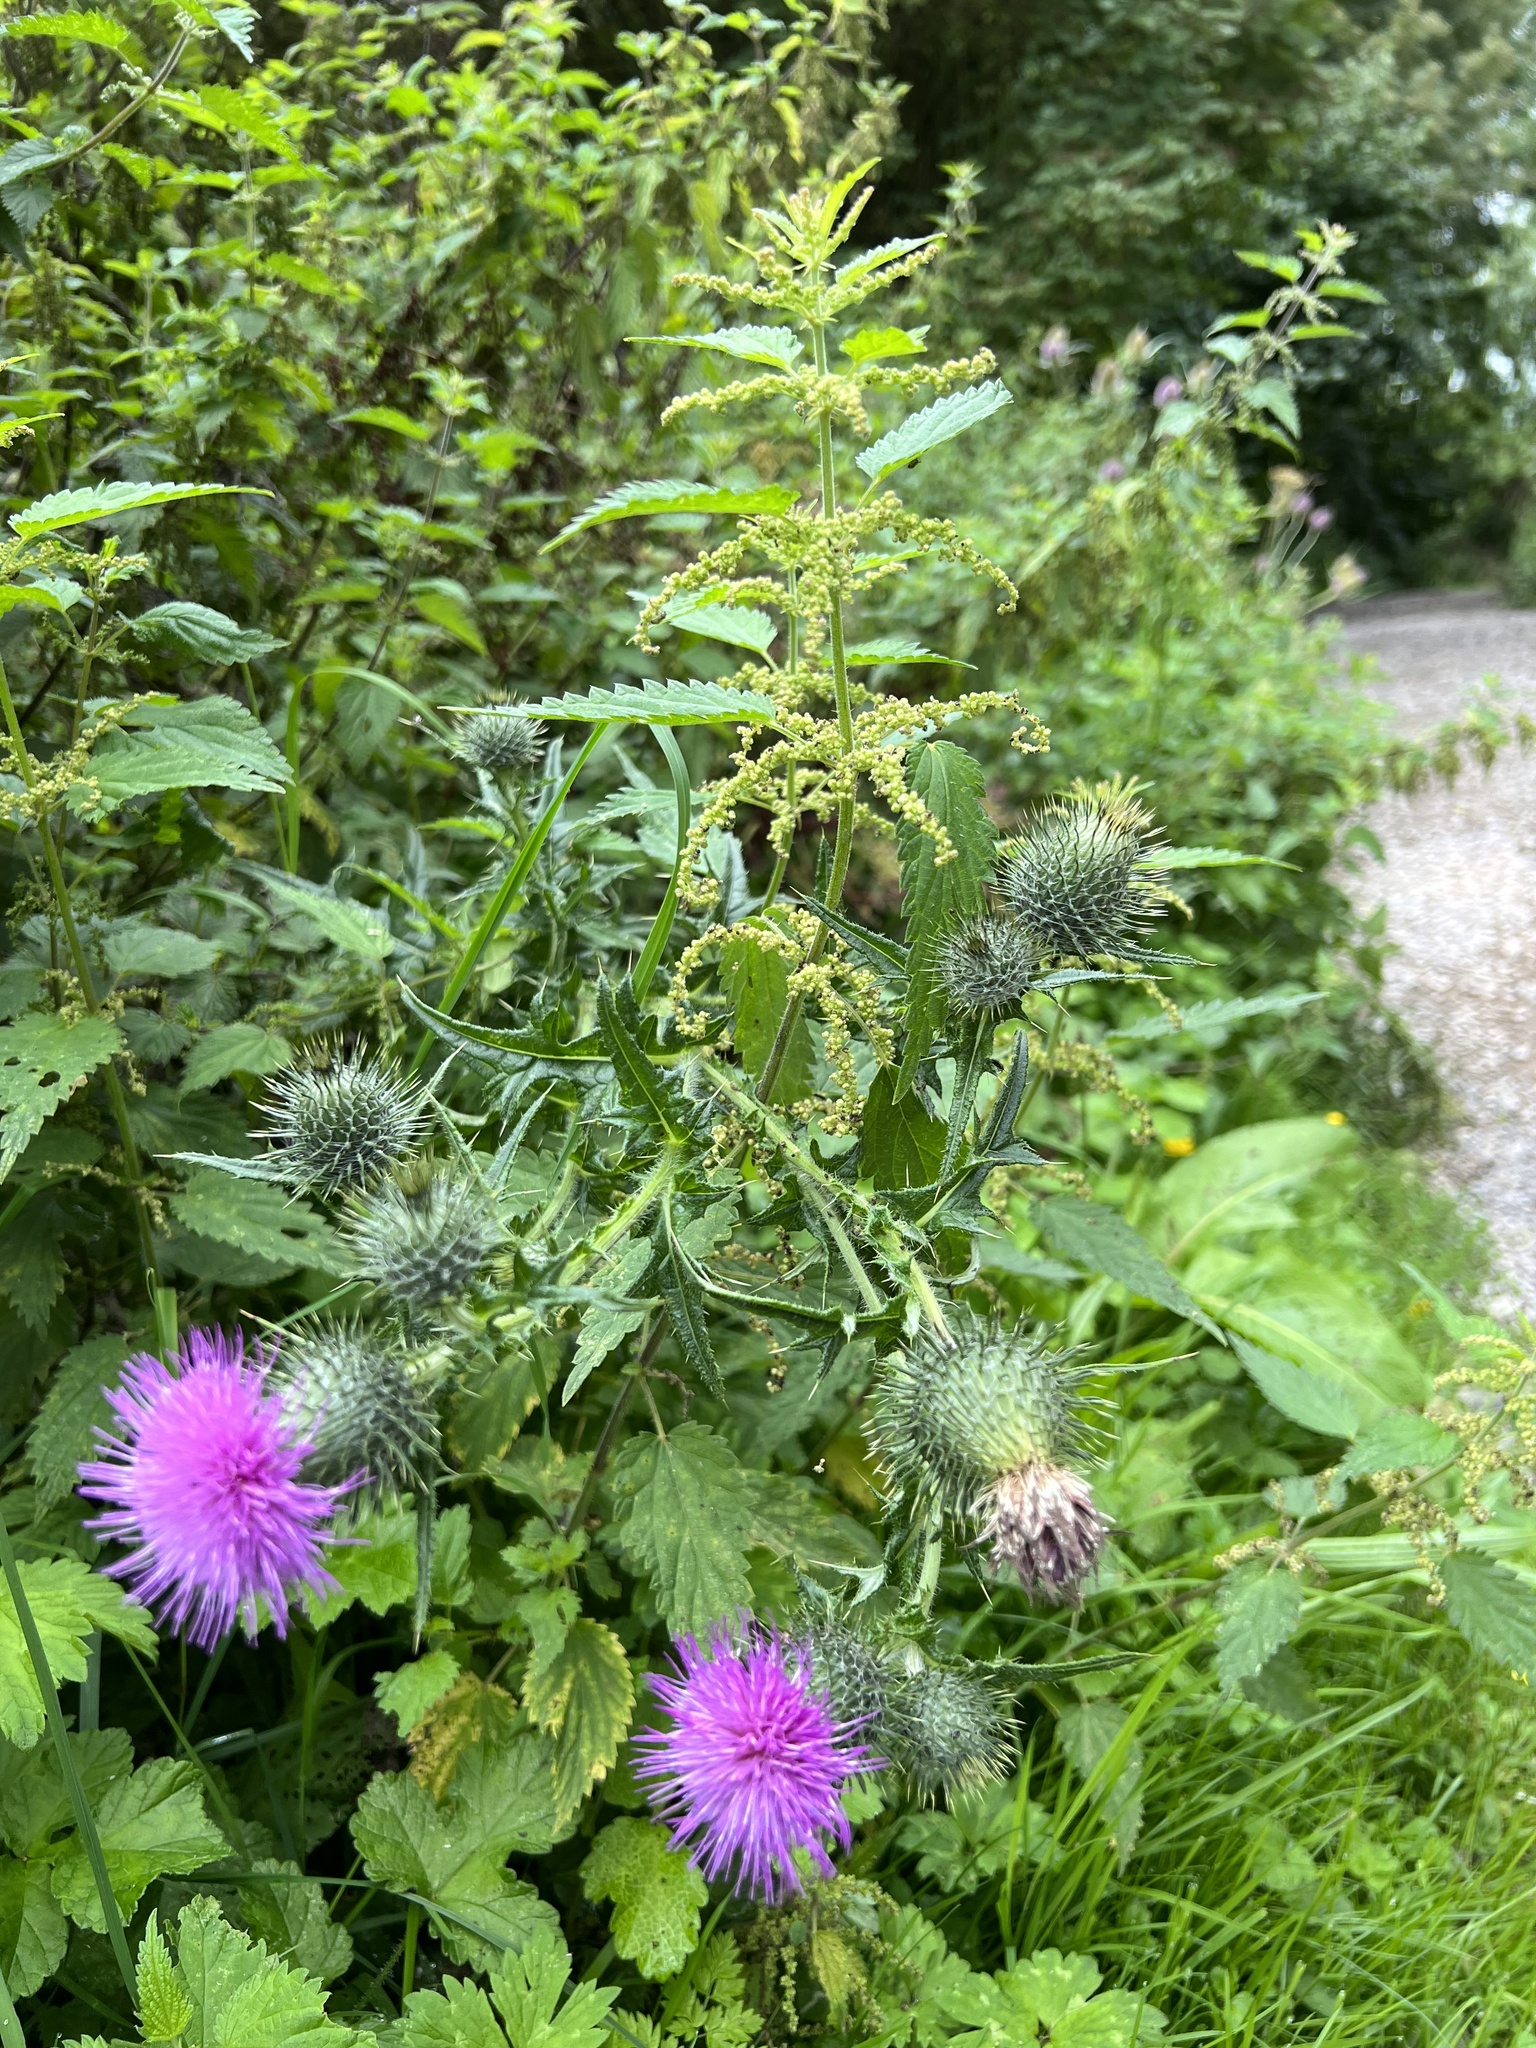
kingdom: Plantae
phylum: Tracheophyta
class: Magnoliopsida
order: Asterales
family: Asteraceae
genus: Cirsium
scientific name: Cirsium vulgare
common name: Bull thistle
